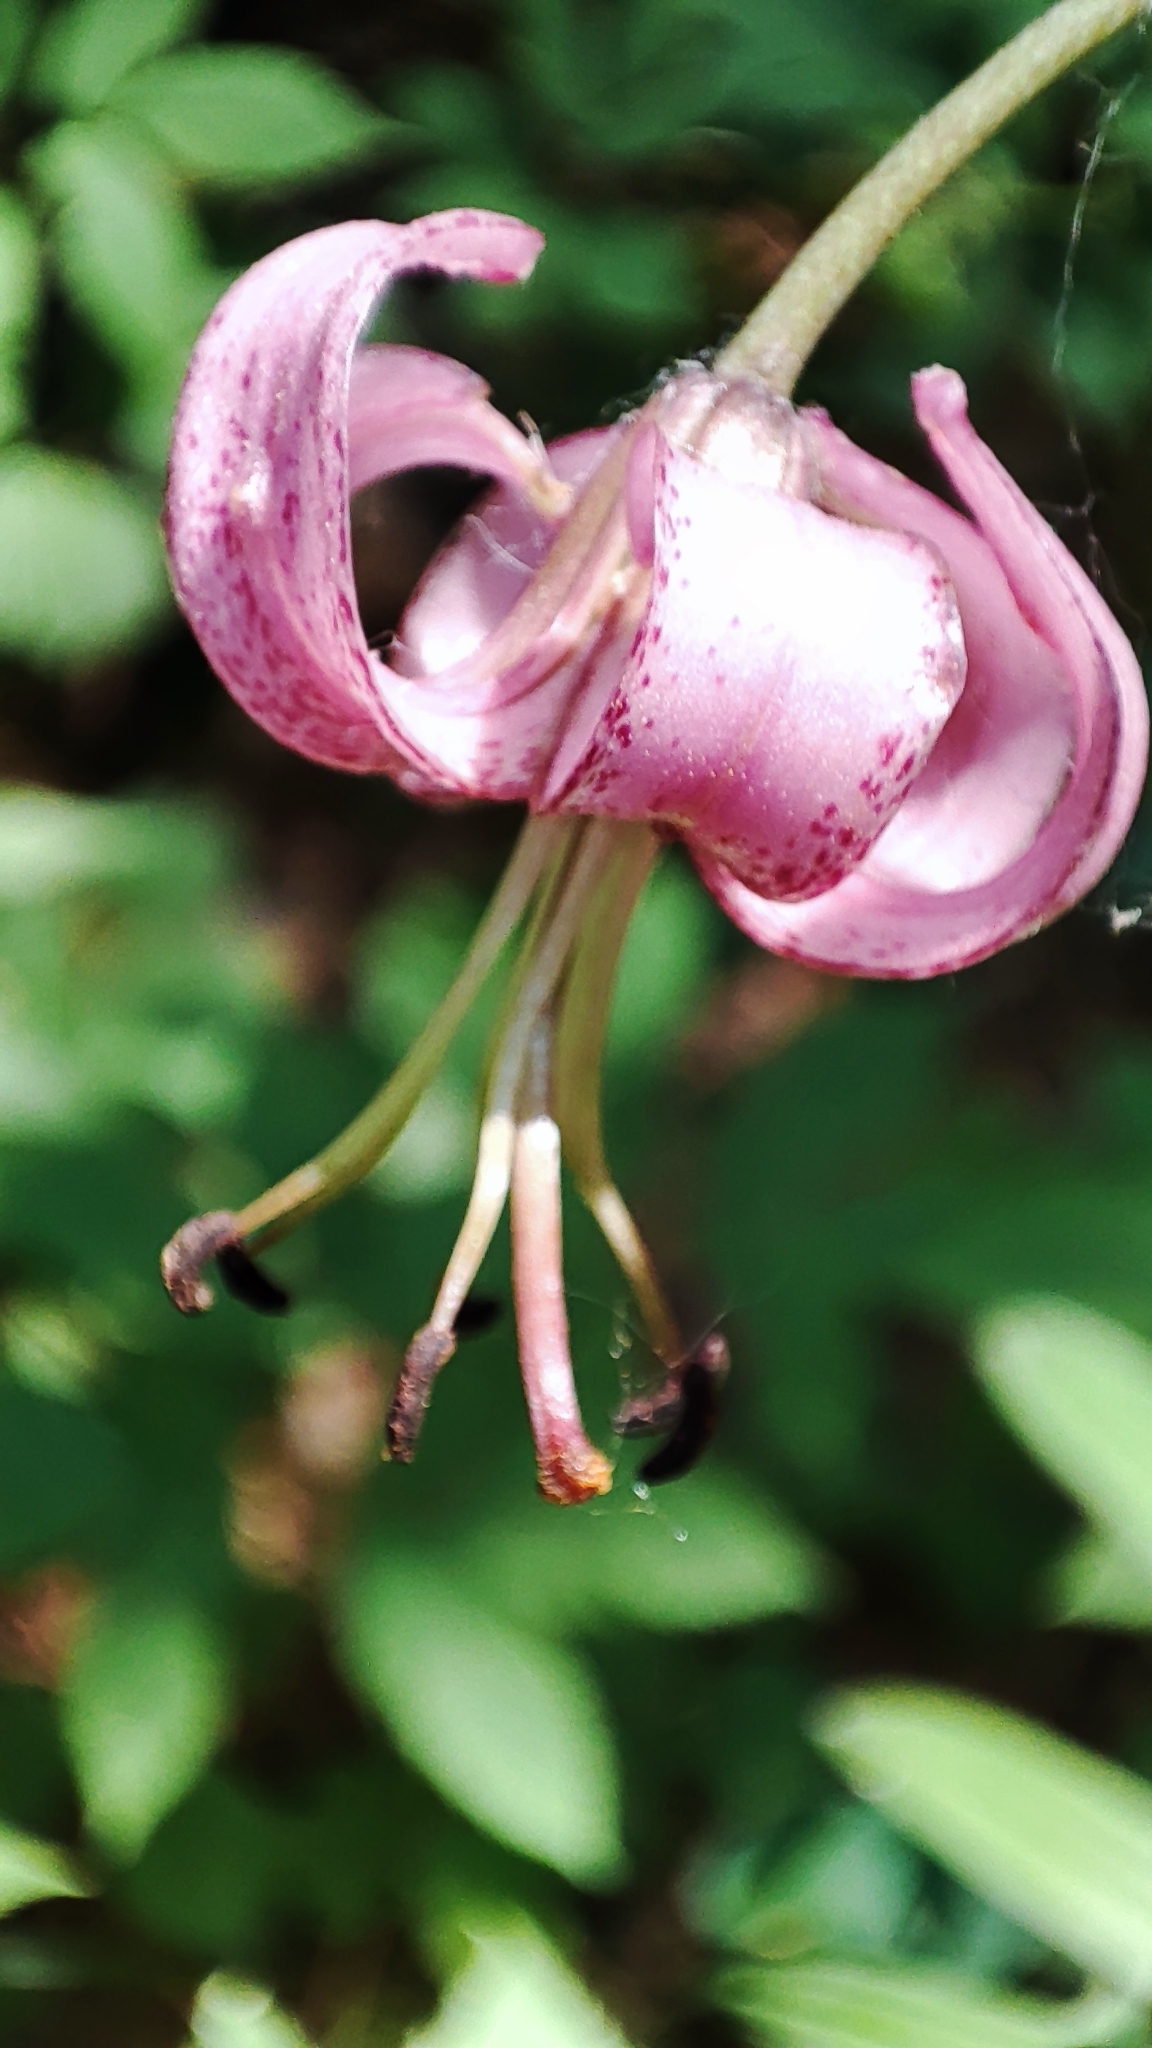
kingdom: Plantae
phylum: Tracheophyta
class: Liliopsida
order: Liliales
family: Liliaceae
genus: Lilium
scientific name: Lilium martagon
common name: Martagon lily
